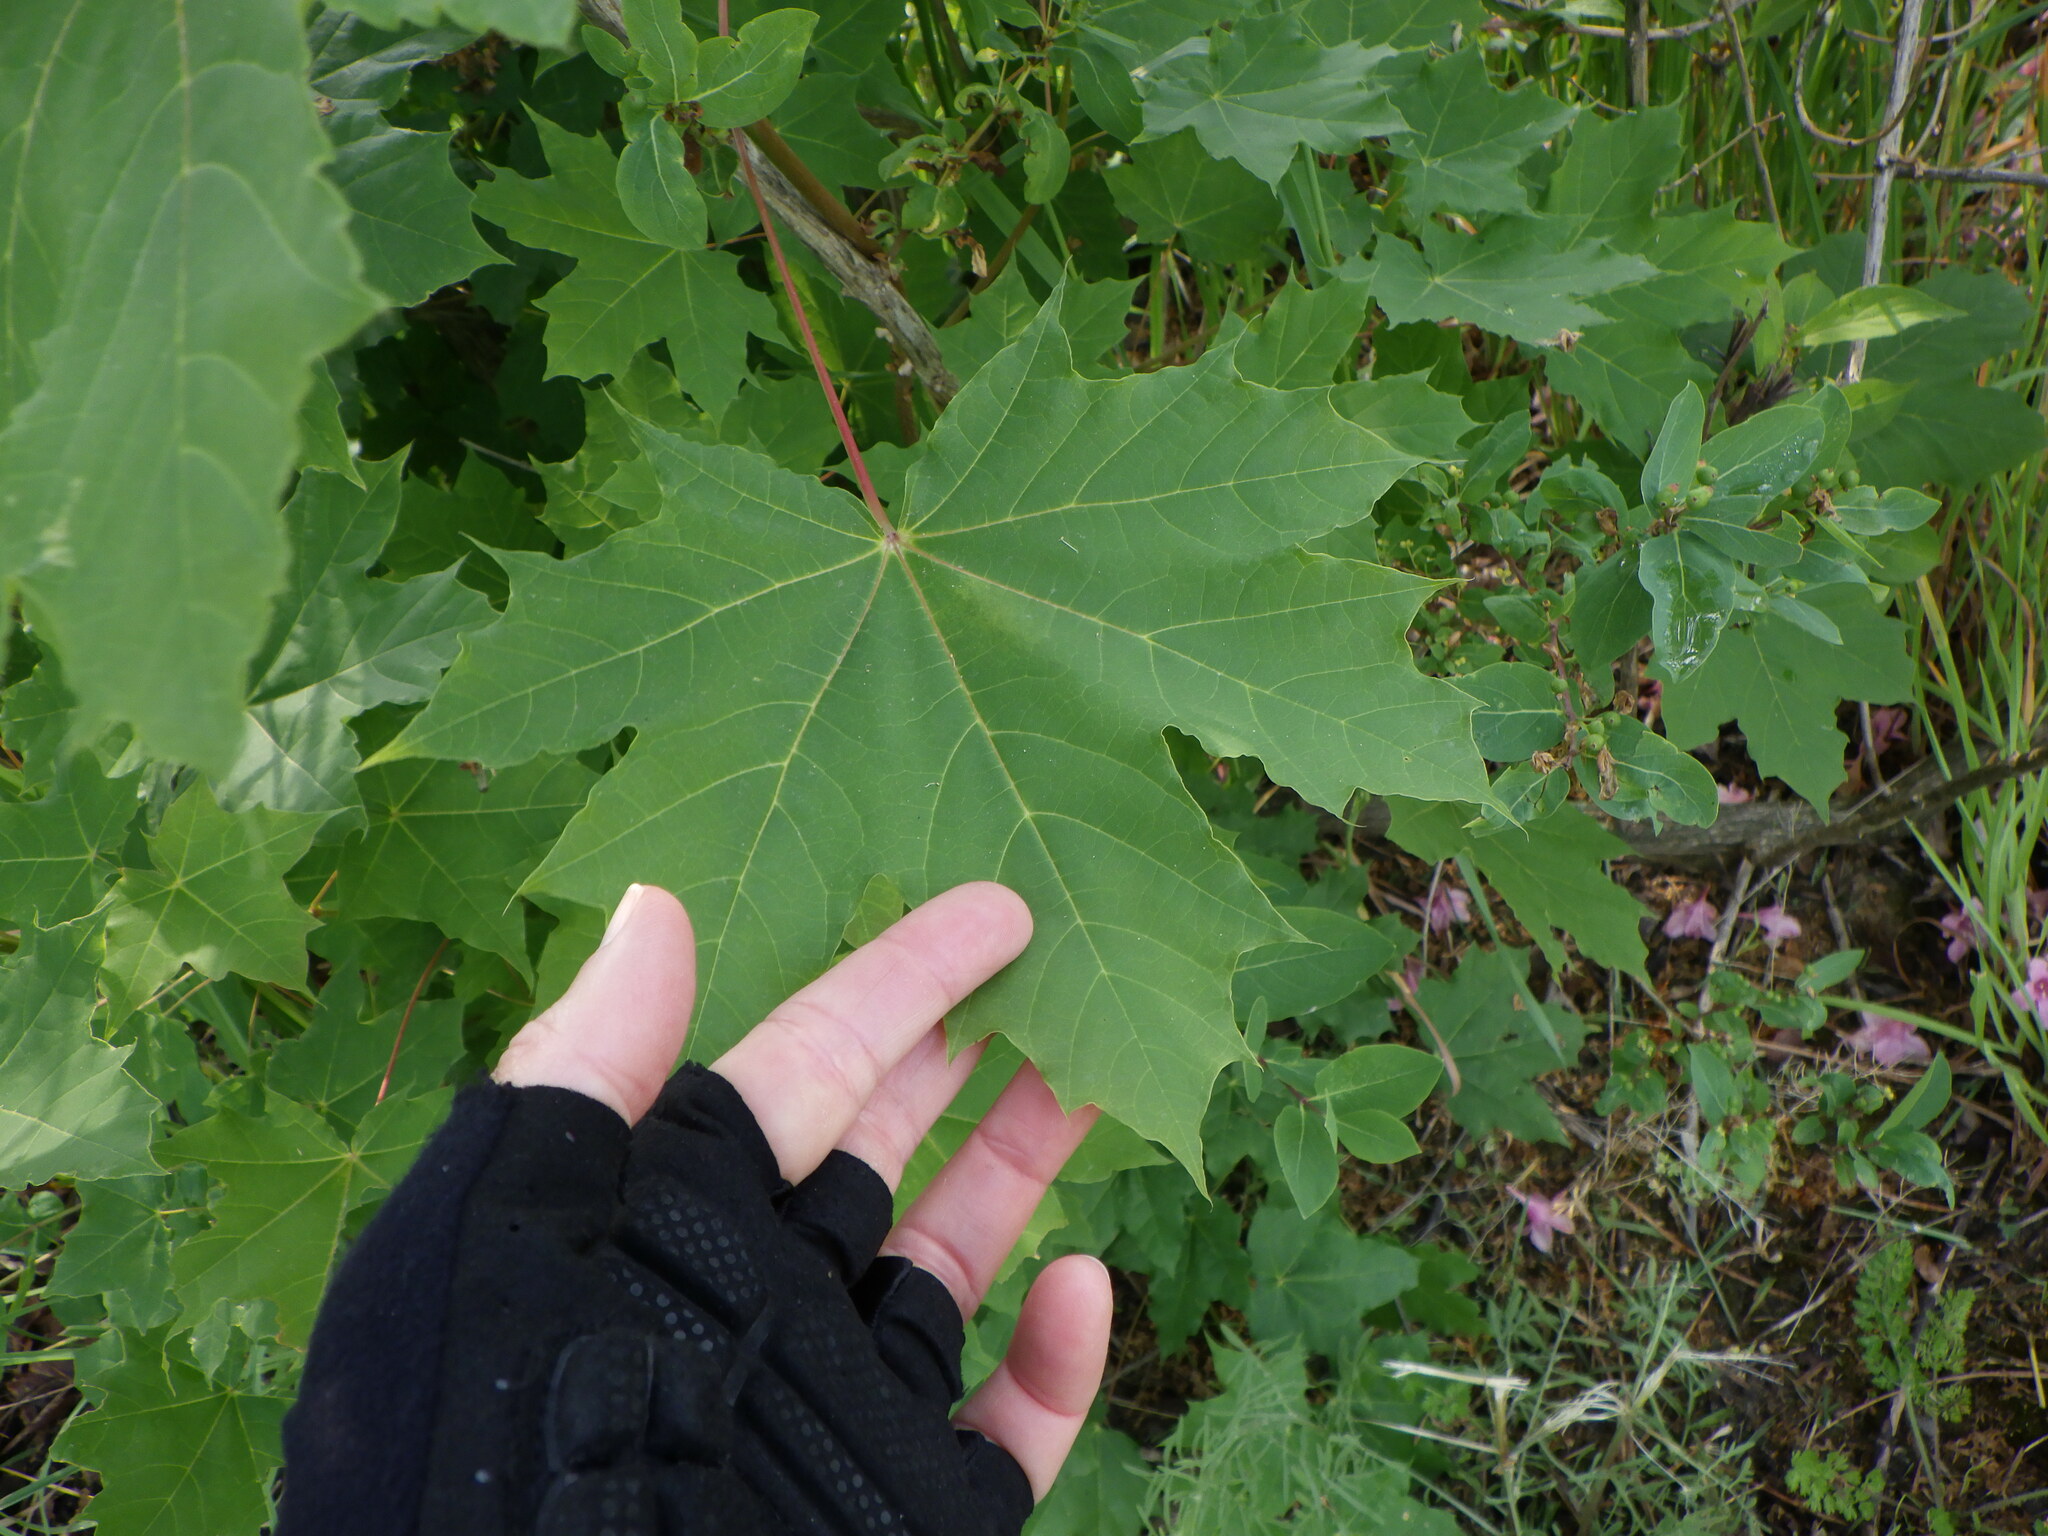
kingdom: Plantae
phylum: Tracheophyta
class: Magnoliopsida
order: Sapindales
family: Sapindaceae
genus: Acer
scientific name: Acer platanoides
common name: Norway maple
